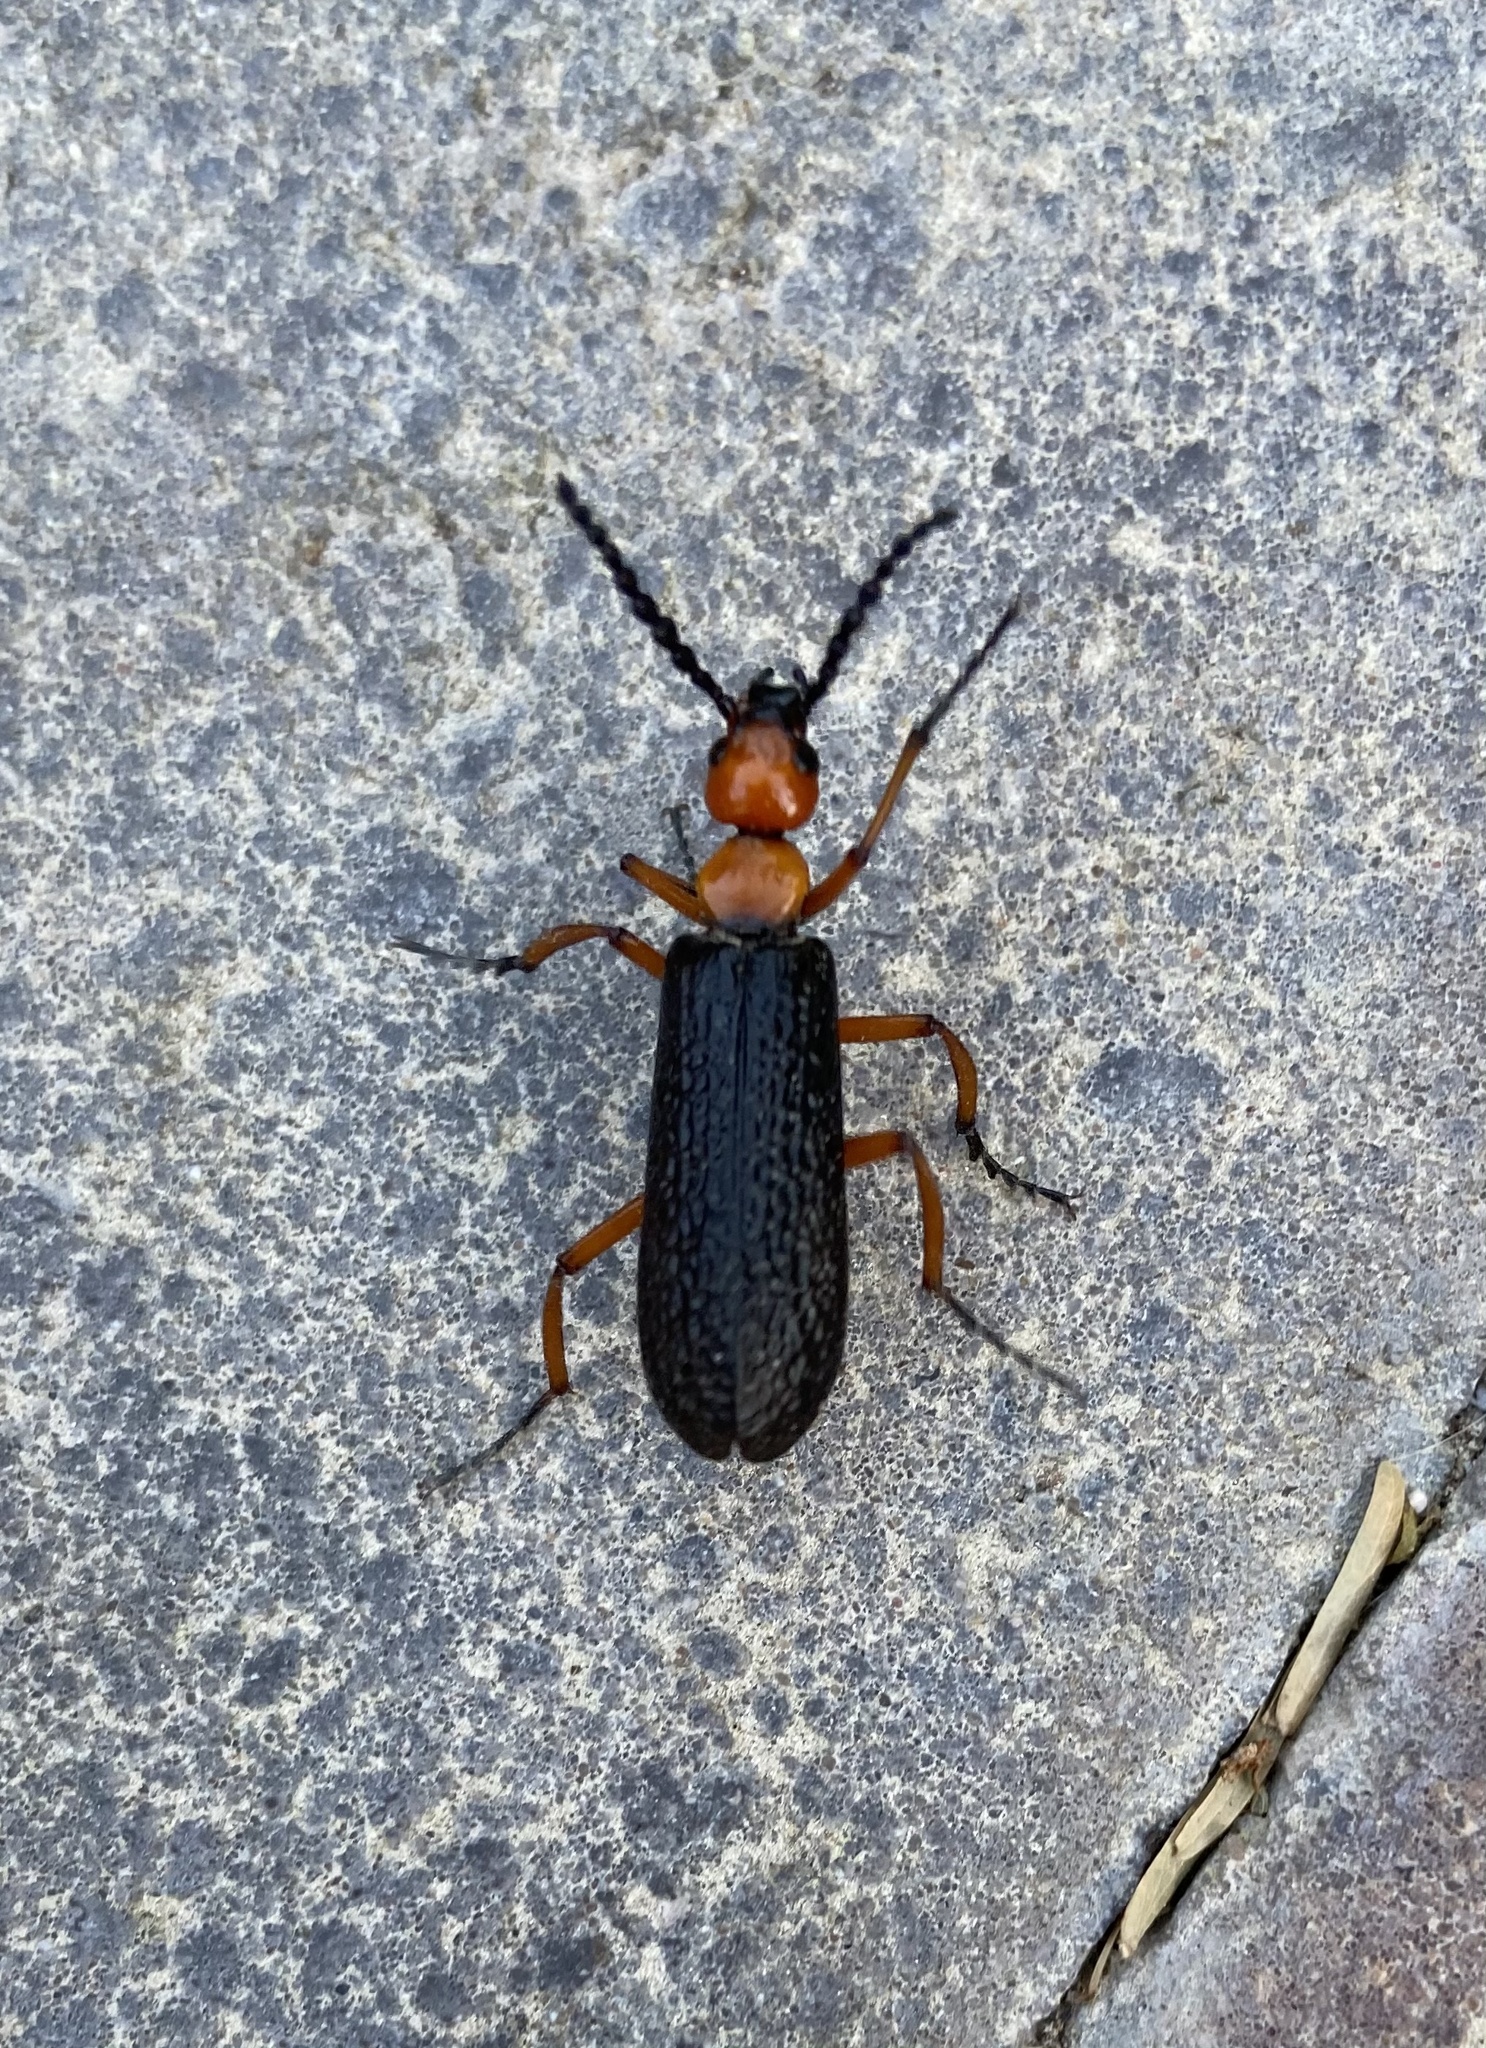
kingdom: Animalia
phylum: Arthropoda
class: Insecta
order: Coleoptera
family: Meloidae
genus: Lytta
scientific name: Lytta magister
